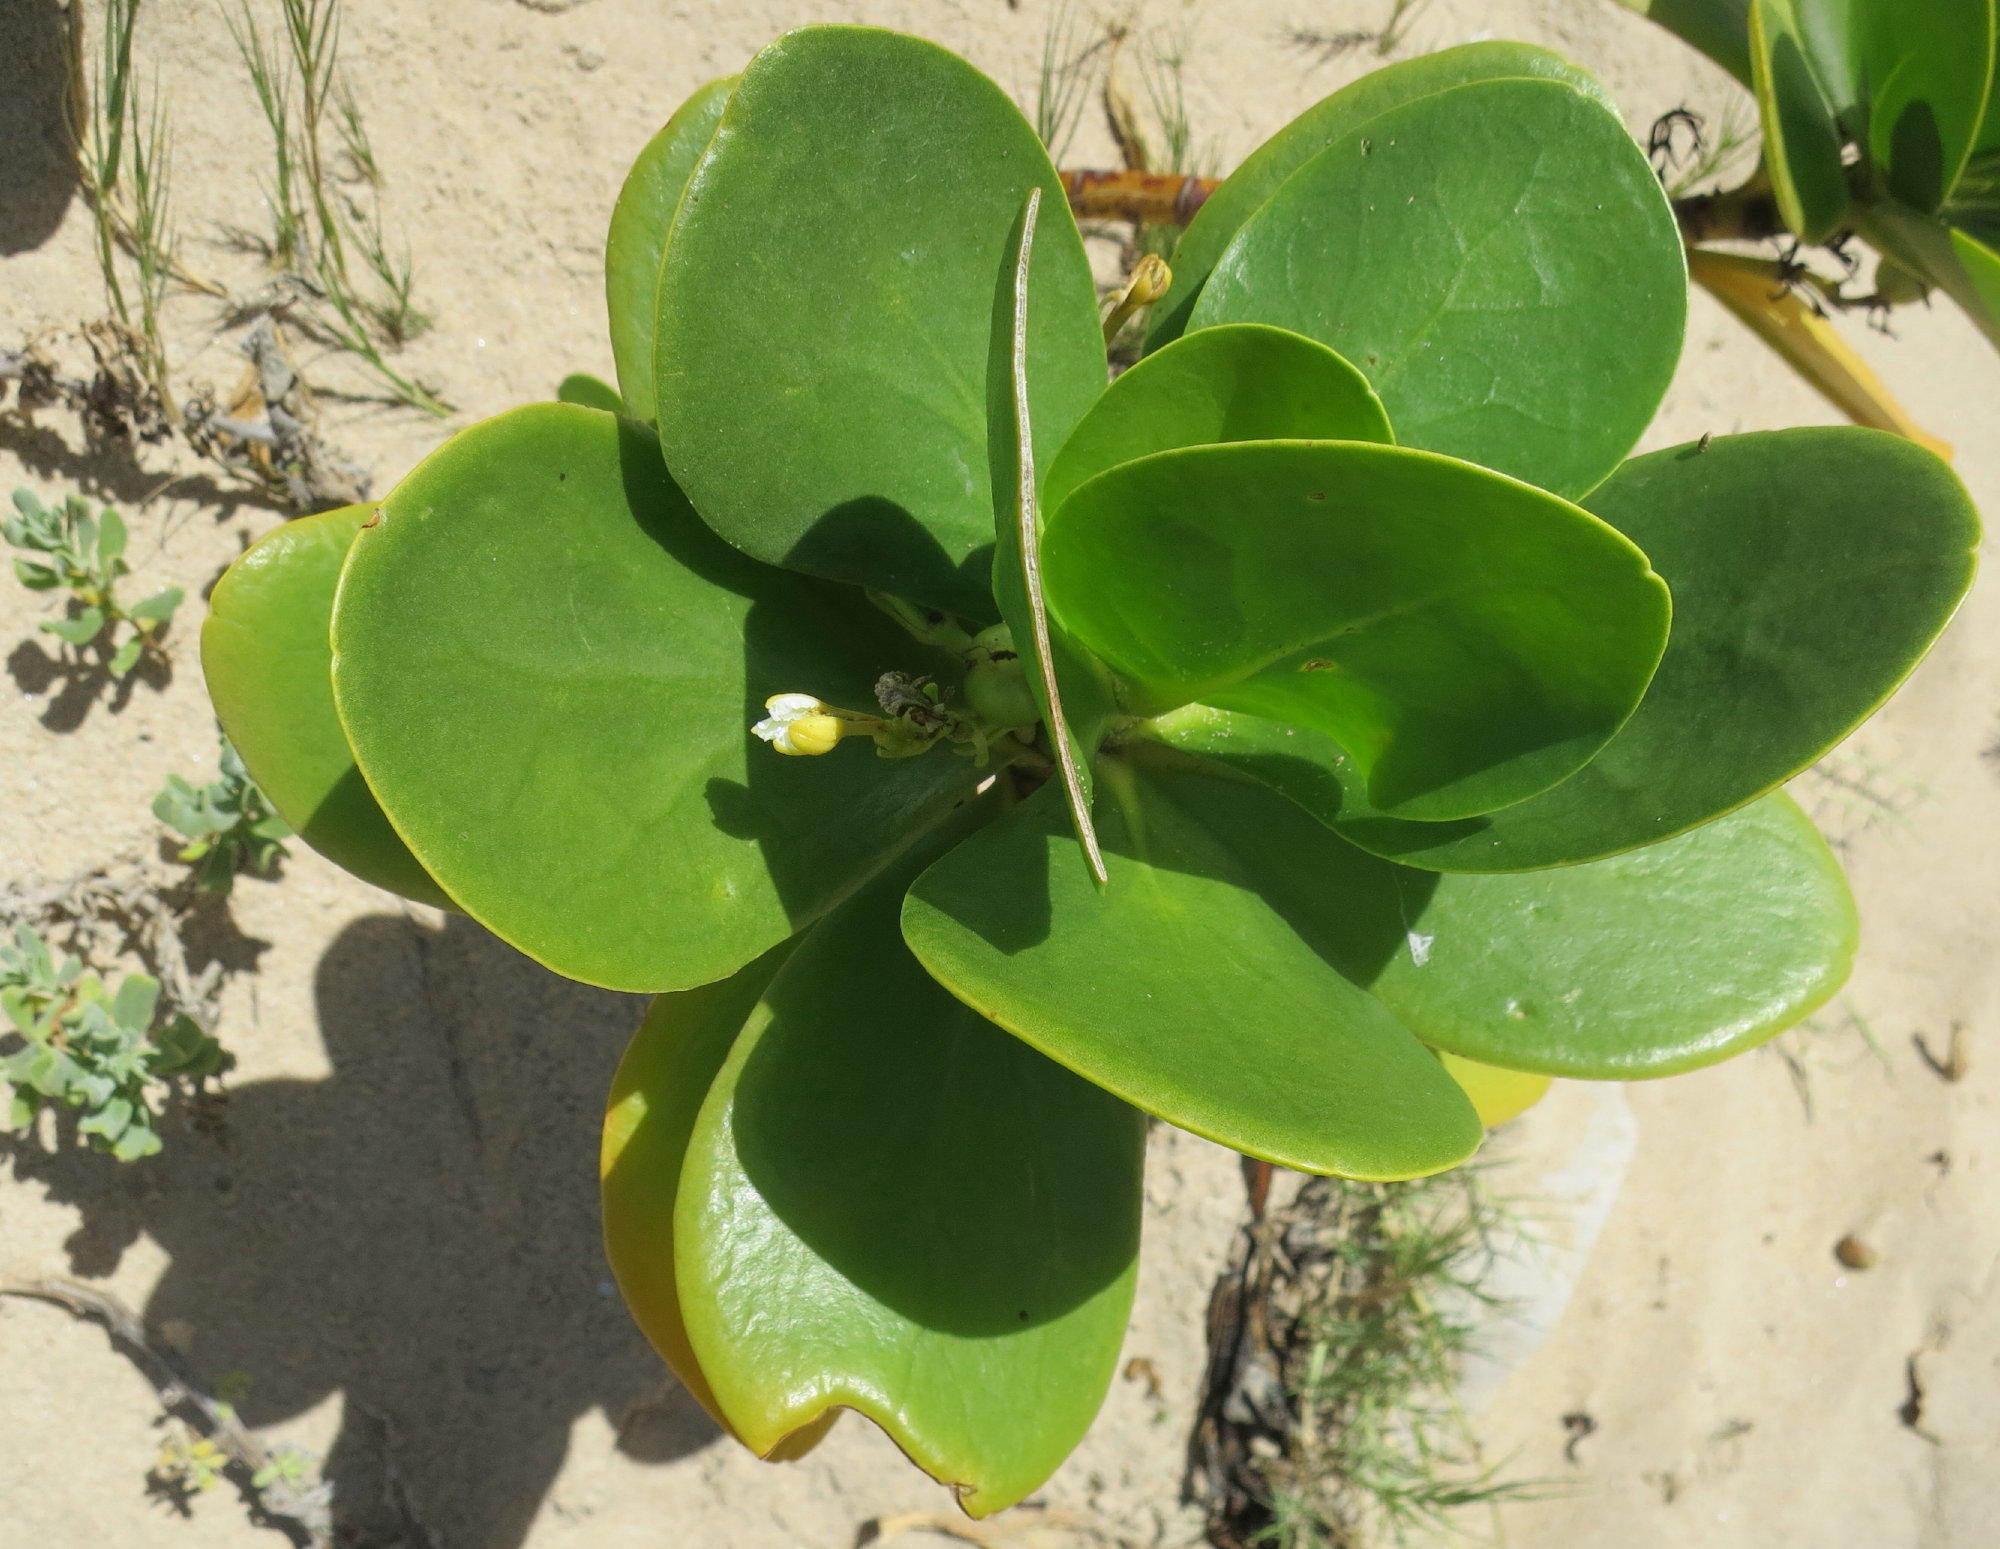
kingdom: Plantae
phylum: Tracheophyta
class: Magnoliopsida
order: Asterales
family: Goodeniaceae
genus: Scaevola
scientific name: Scaevola plumieri
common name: Gull feed
